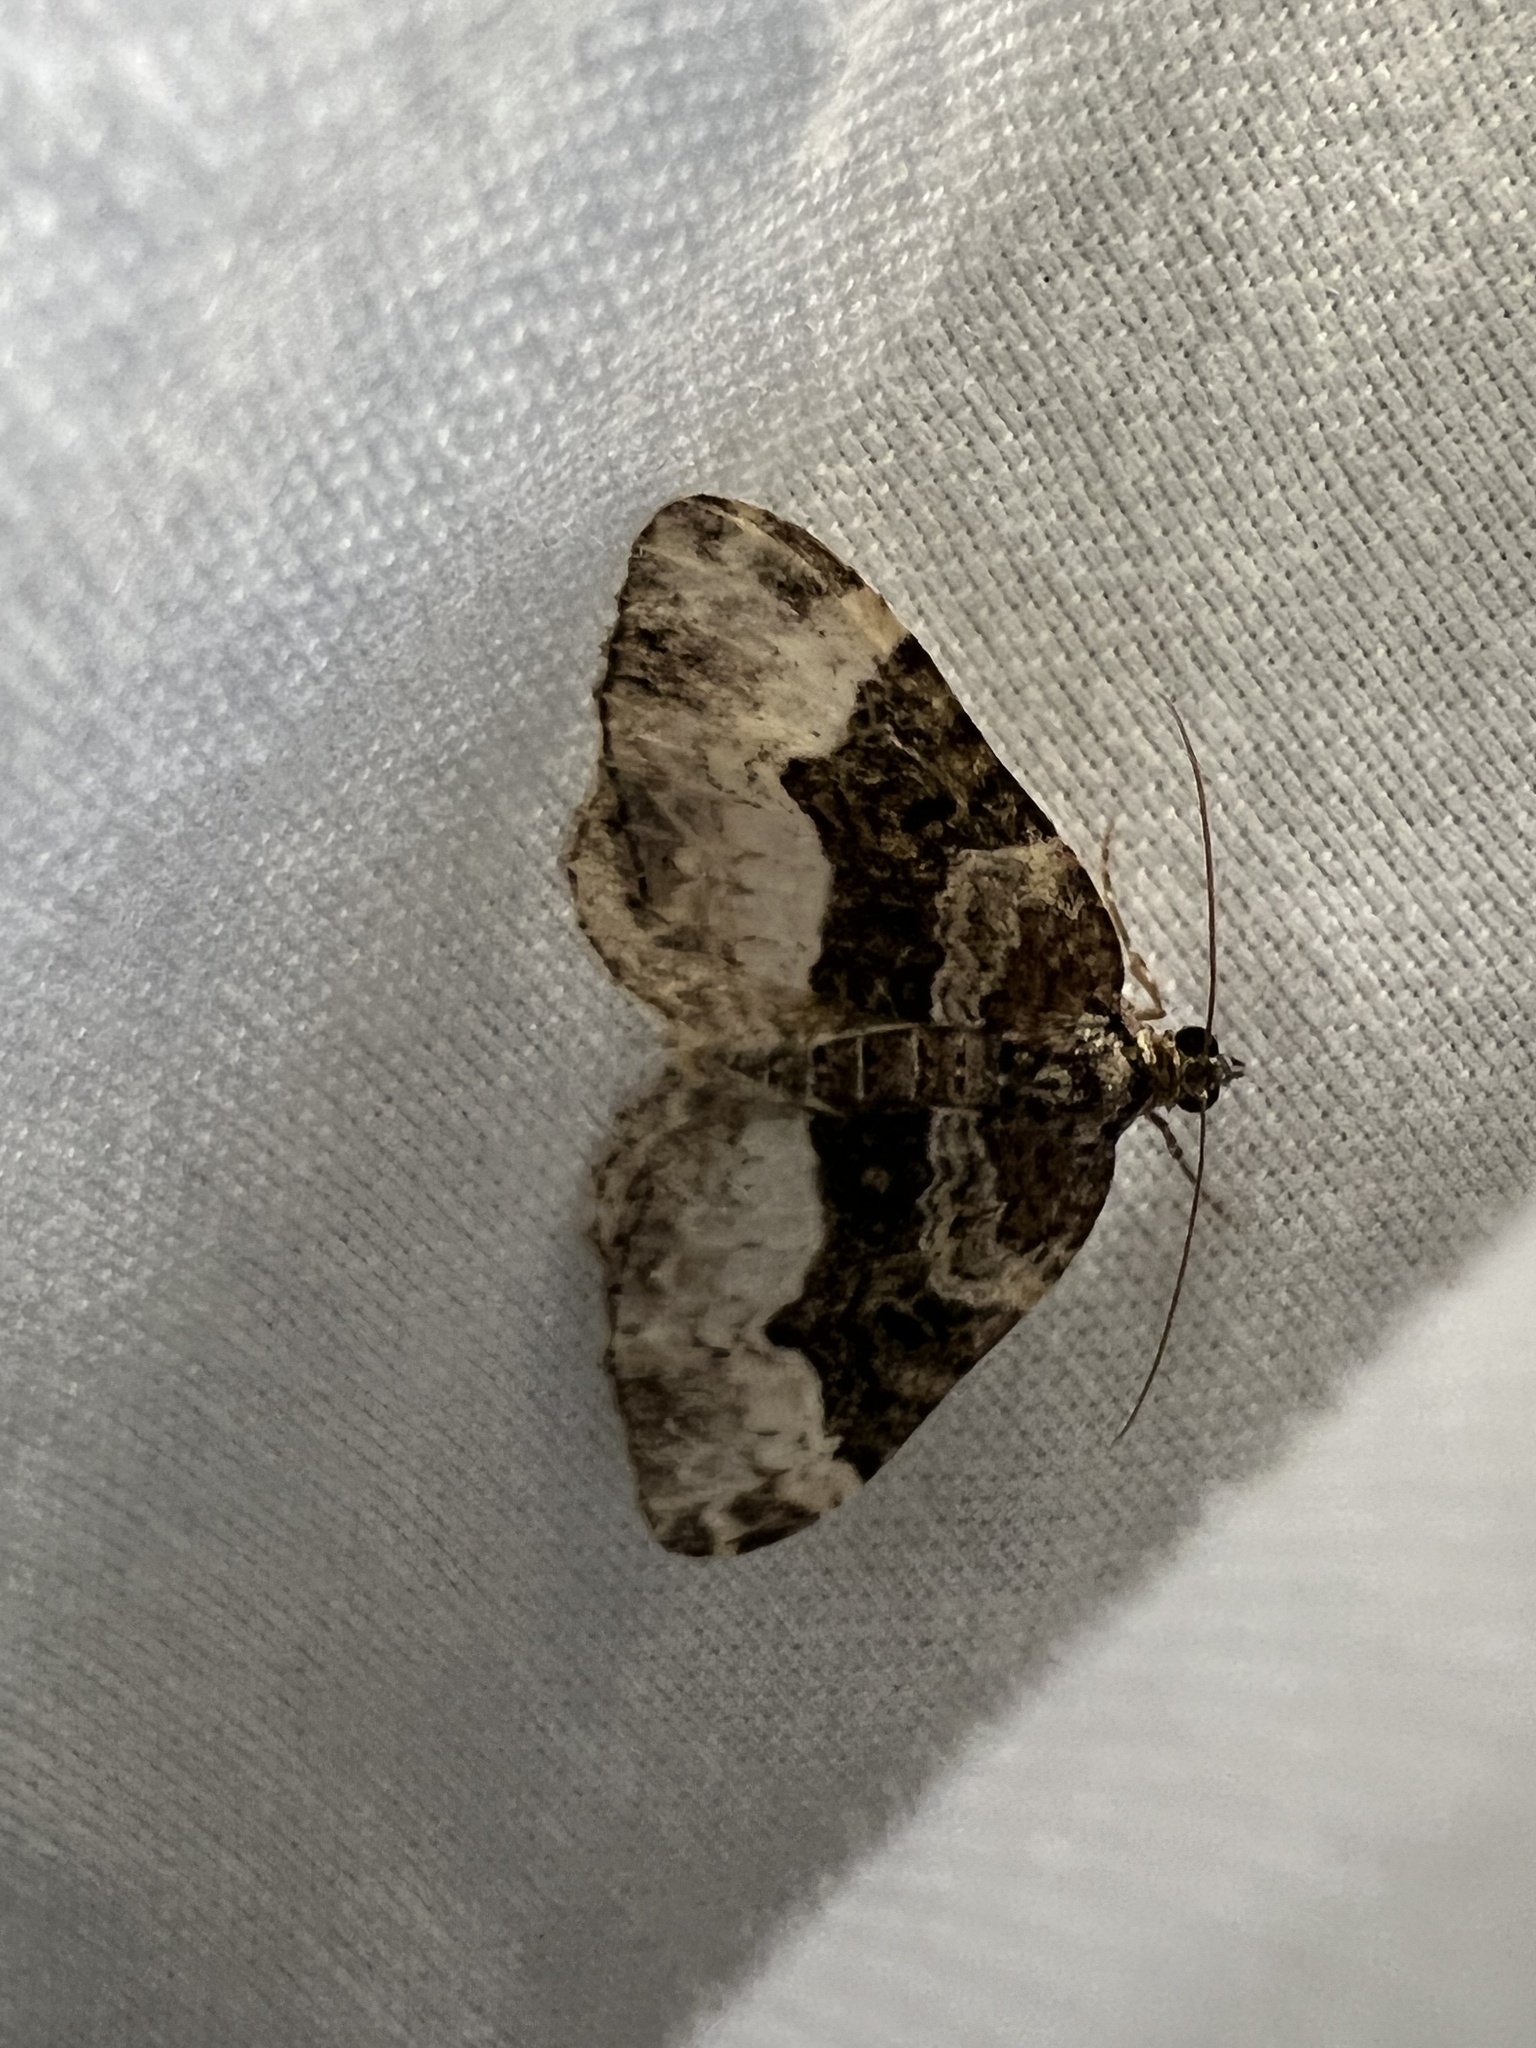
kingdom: Animalia
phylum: Arthropoda
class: Insecta
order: Lepidoptera
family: Geometridae
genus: Euphyia
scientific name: Euphyia intermediata
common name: Sharp-angled carpet
